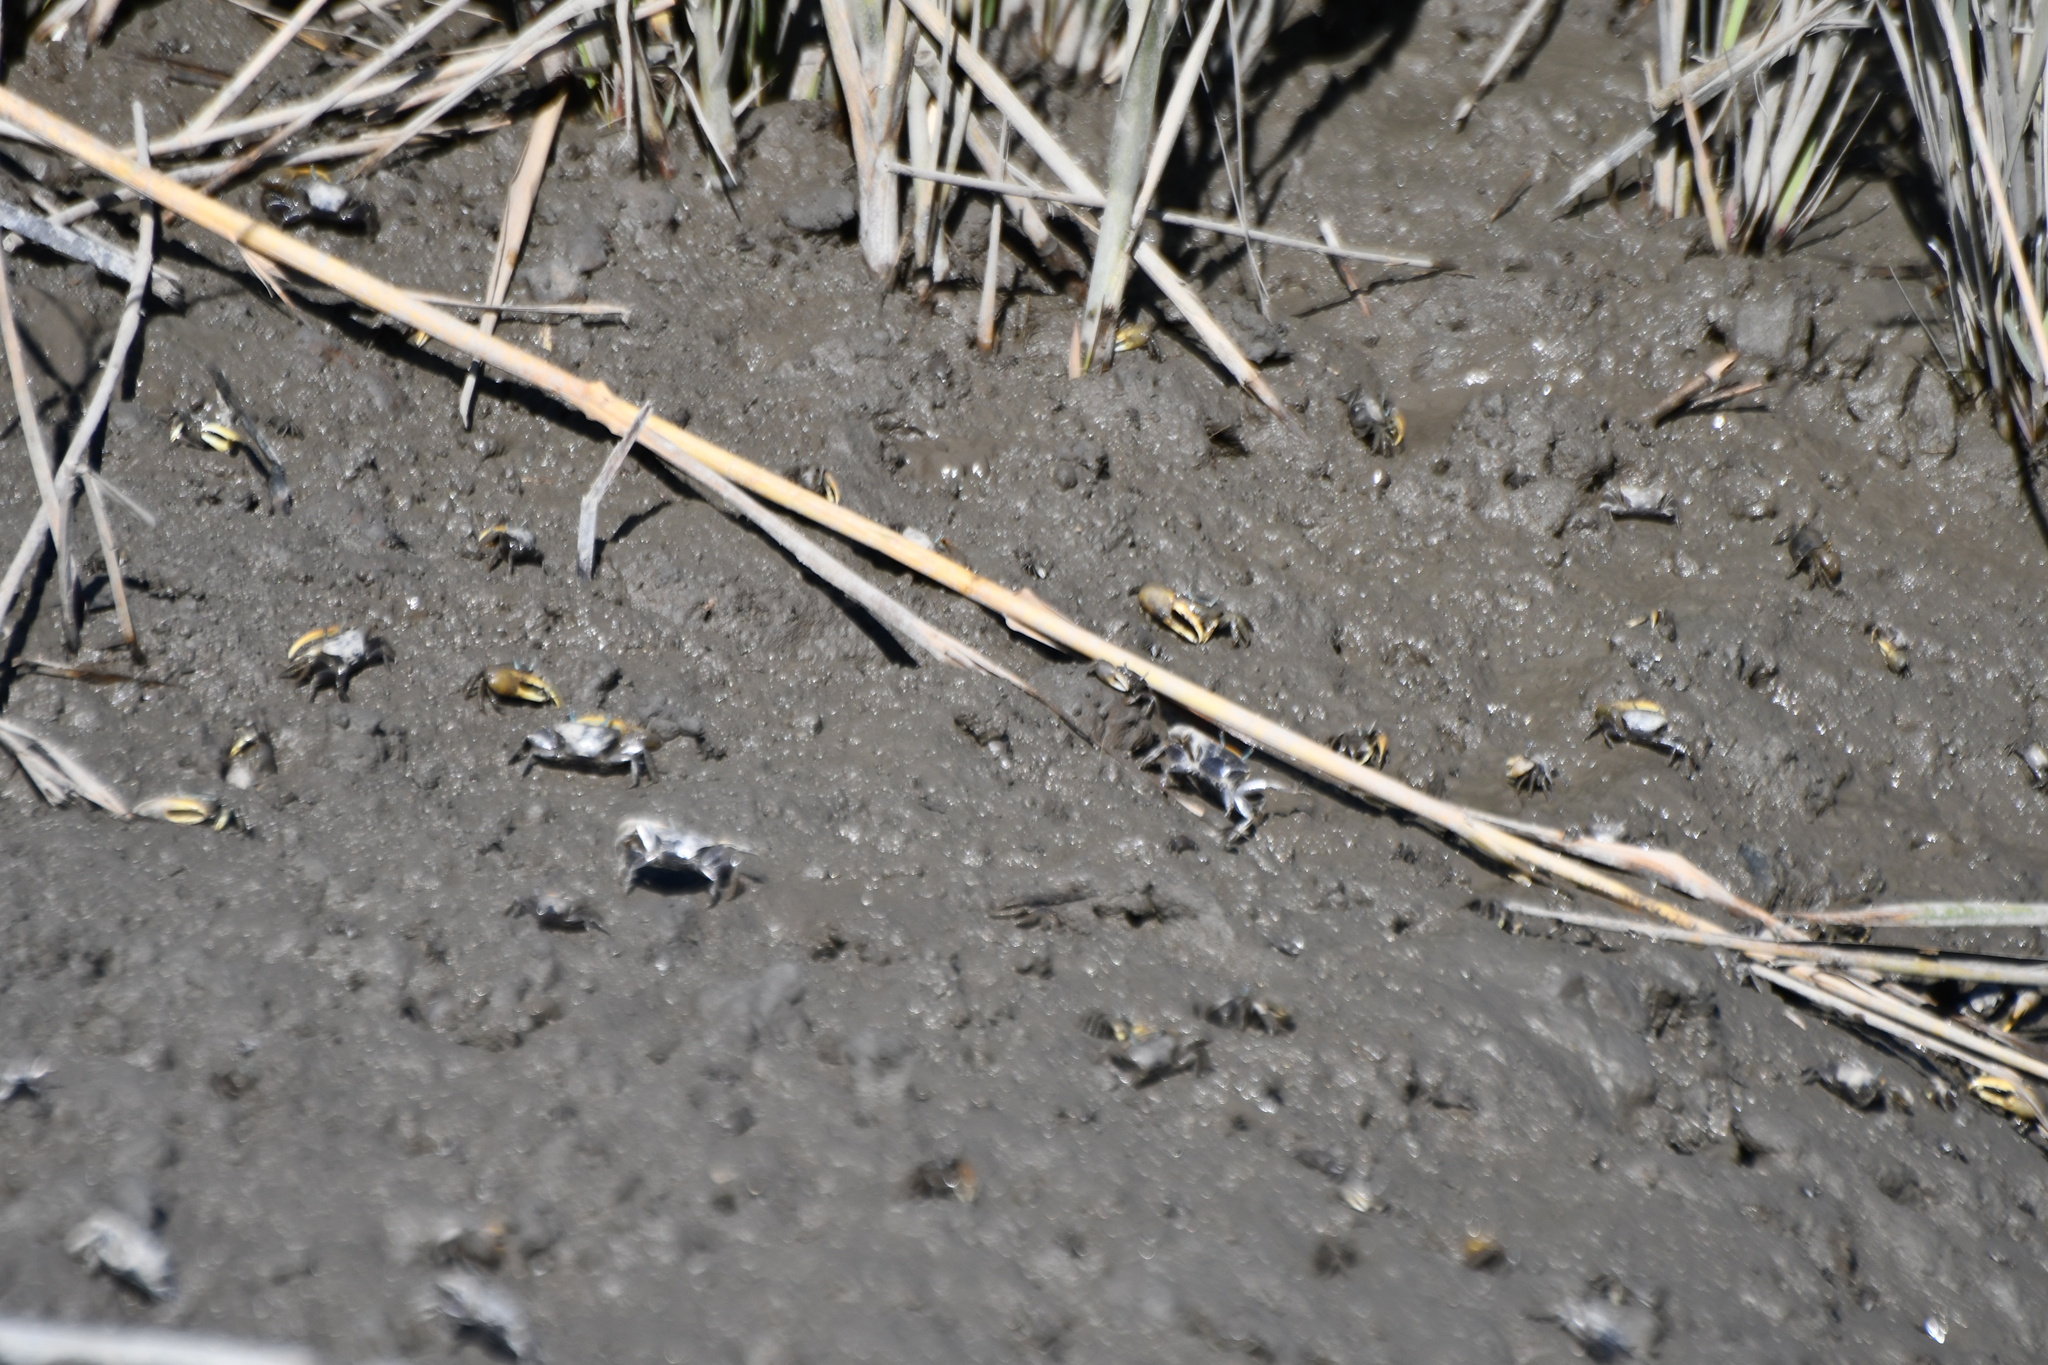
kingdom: Animalia
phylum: Arthropoda
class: Malacostraca
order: Decapoda
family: Ocypodidae
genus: Minuca
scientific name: Minuca pugnax
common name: Mud fiddler crab
